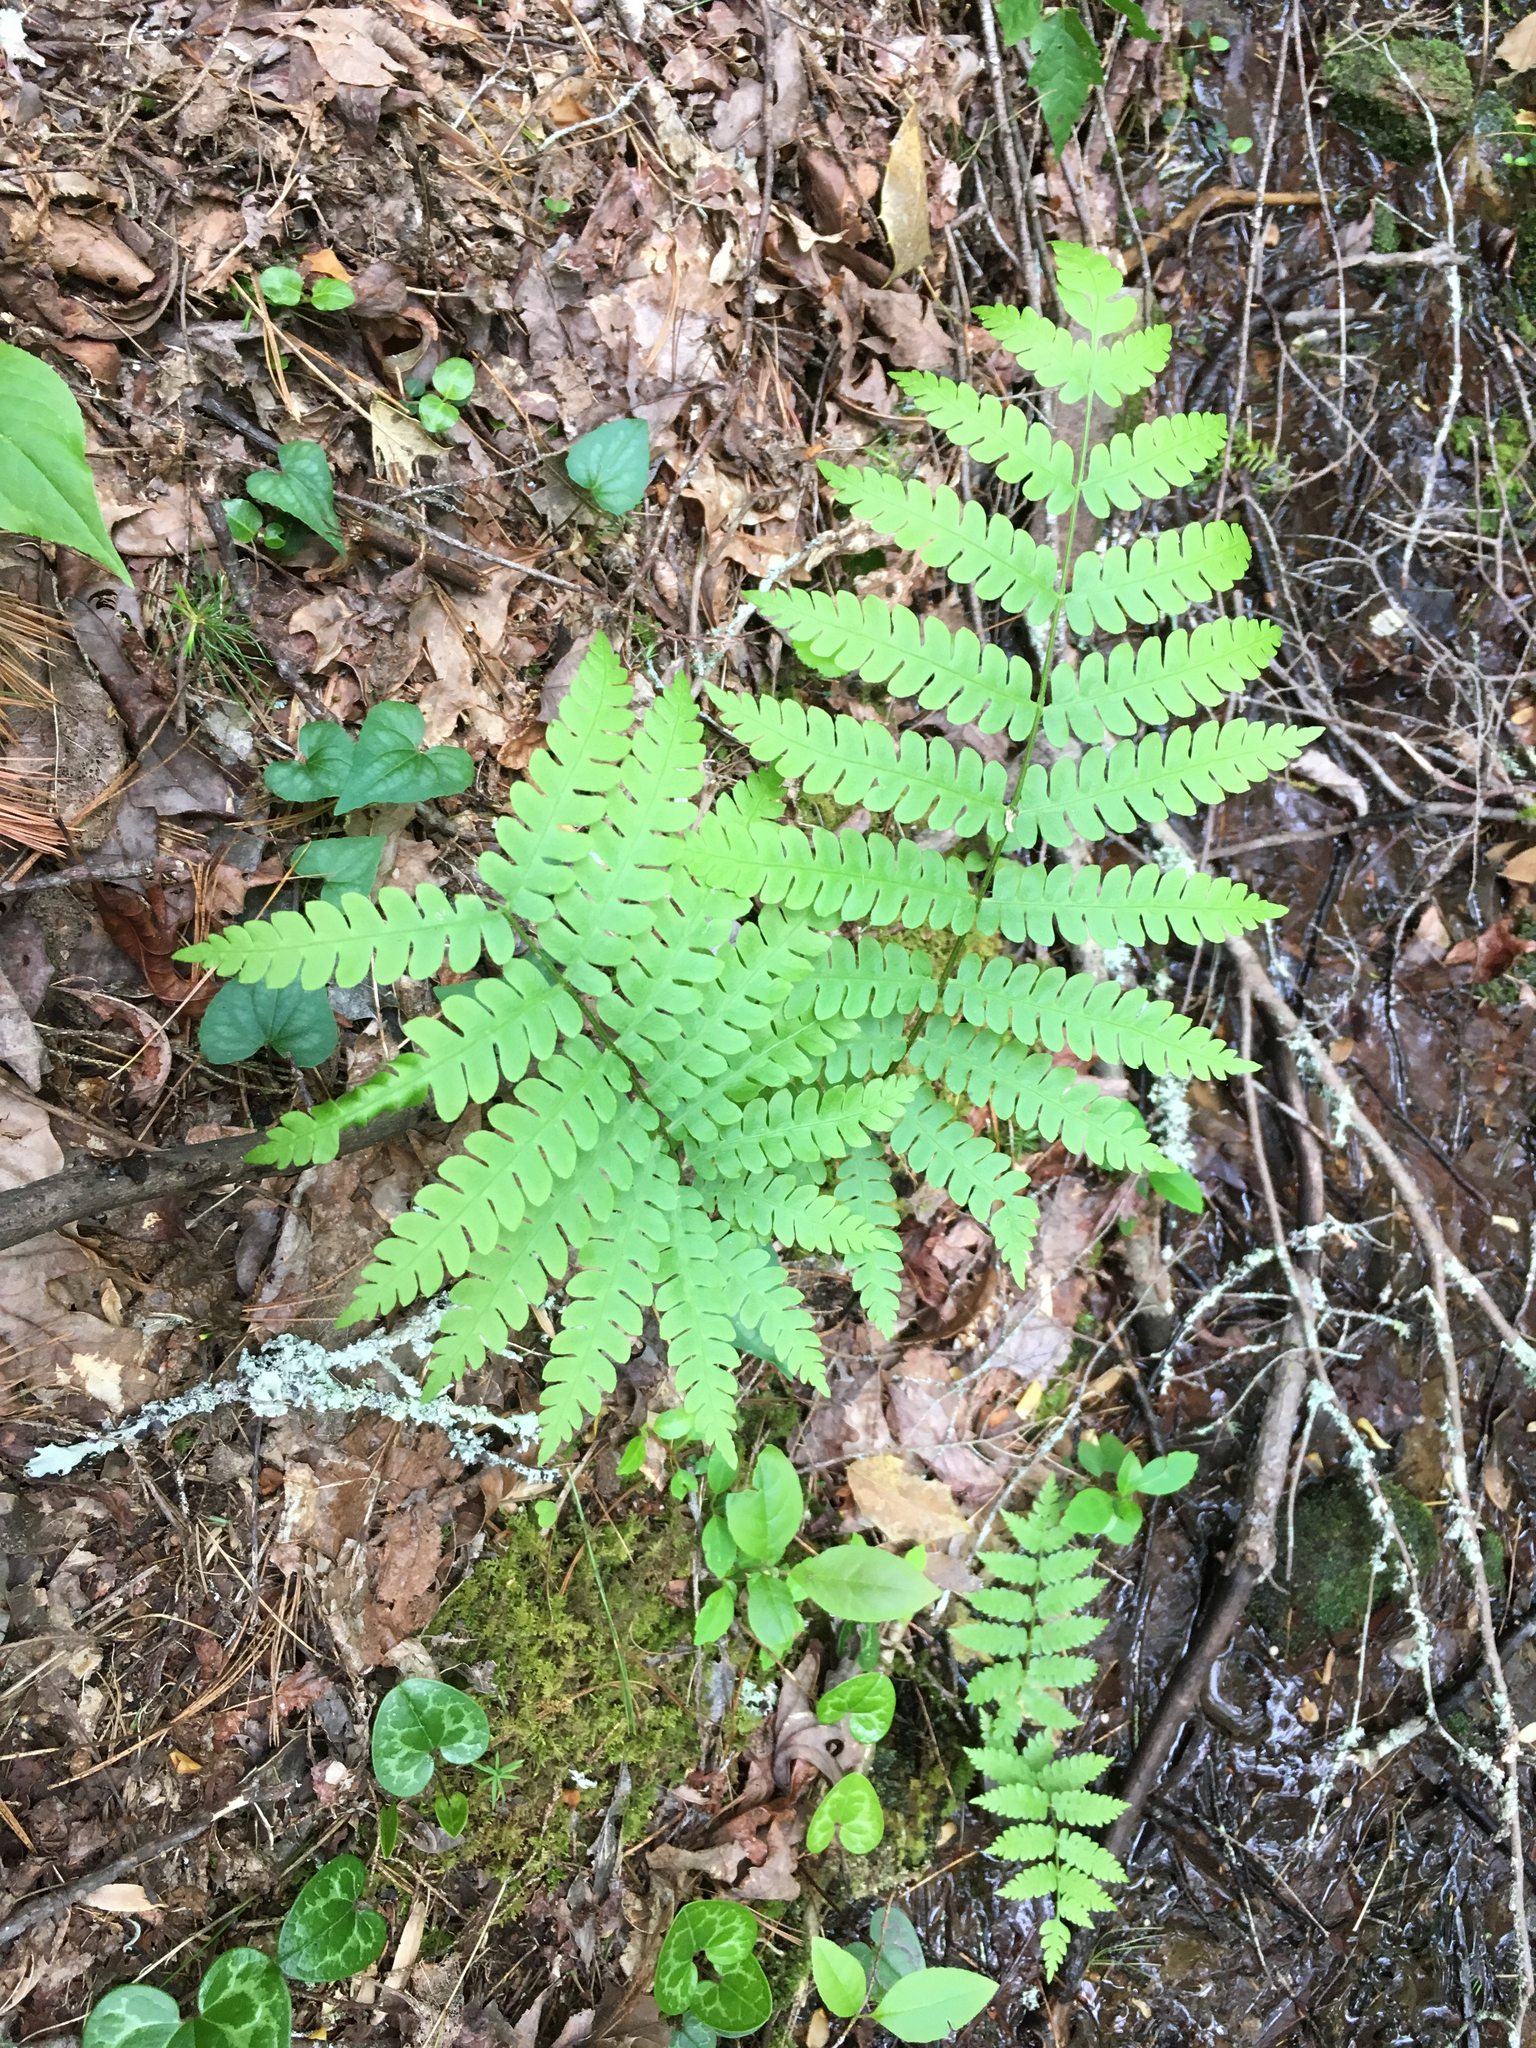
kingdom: Plantae
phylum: Tracheophyta
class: Polypodiopsida
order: Osmundales
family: Osmundaceae
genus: Osmundastrum
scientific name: Osmundastrum cinnamomeum
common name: Cinnamon fern
